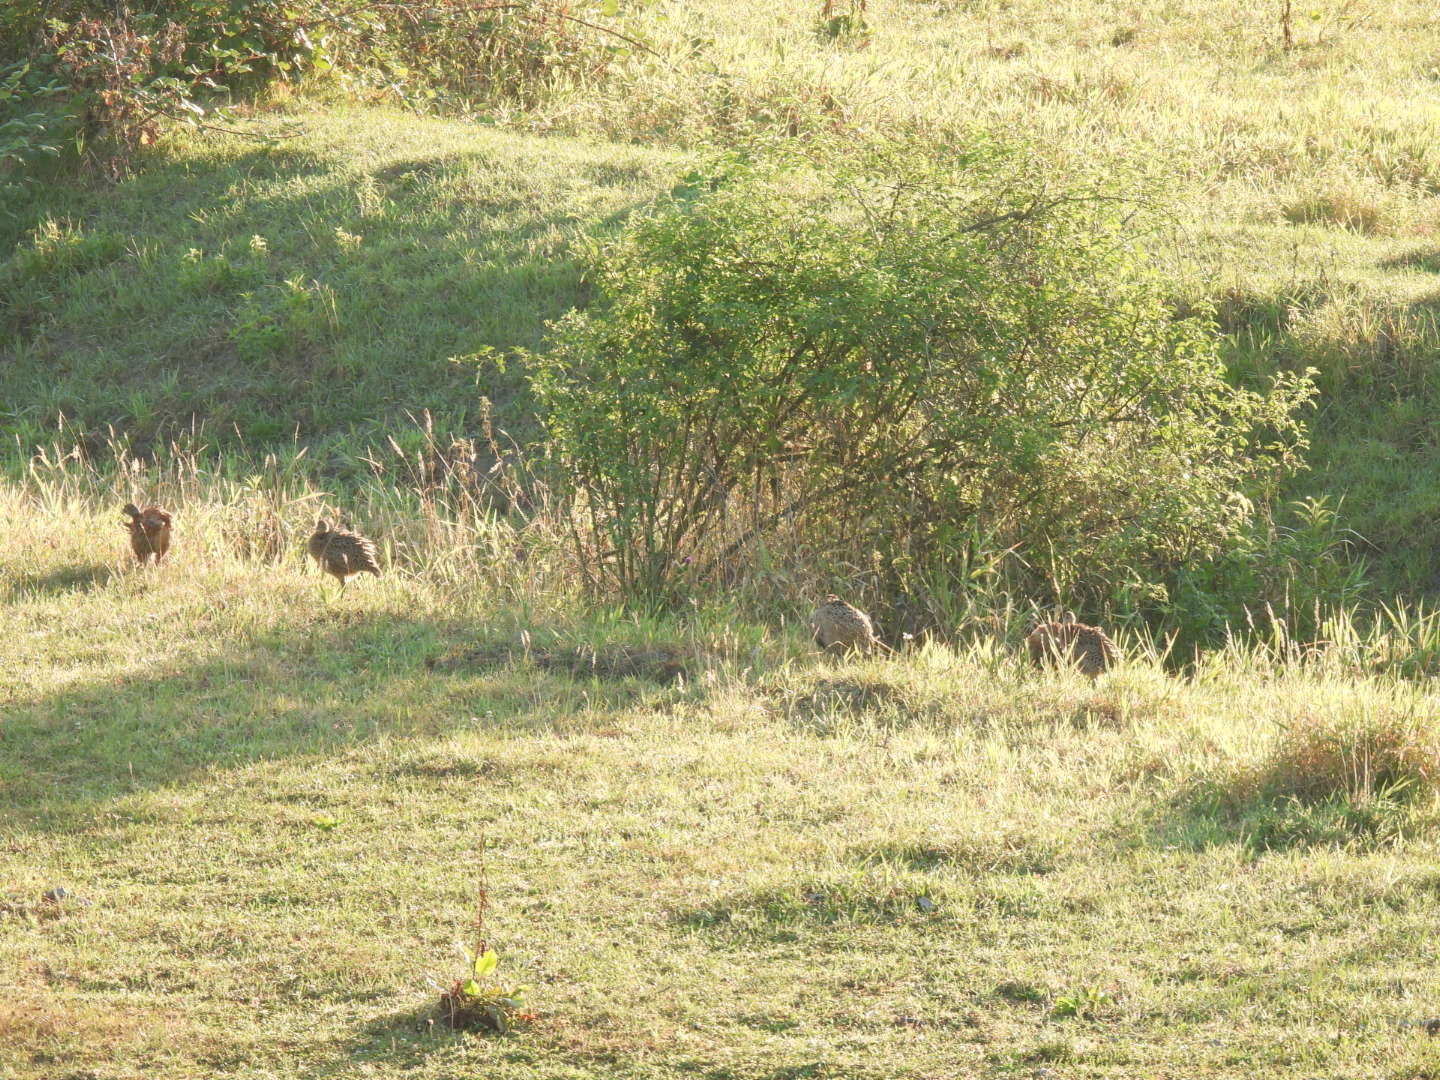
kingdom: Animalia
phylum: Chordata
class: Aves
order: Galliformes
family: Phasianidae
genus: Phasianus
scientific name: Phasianus colchicus
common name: Common pheasant
